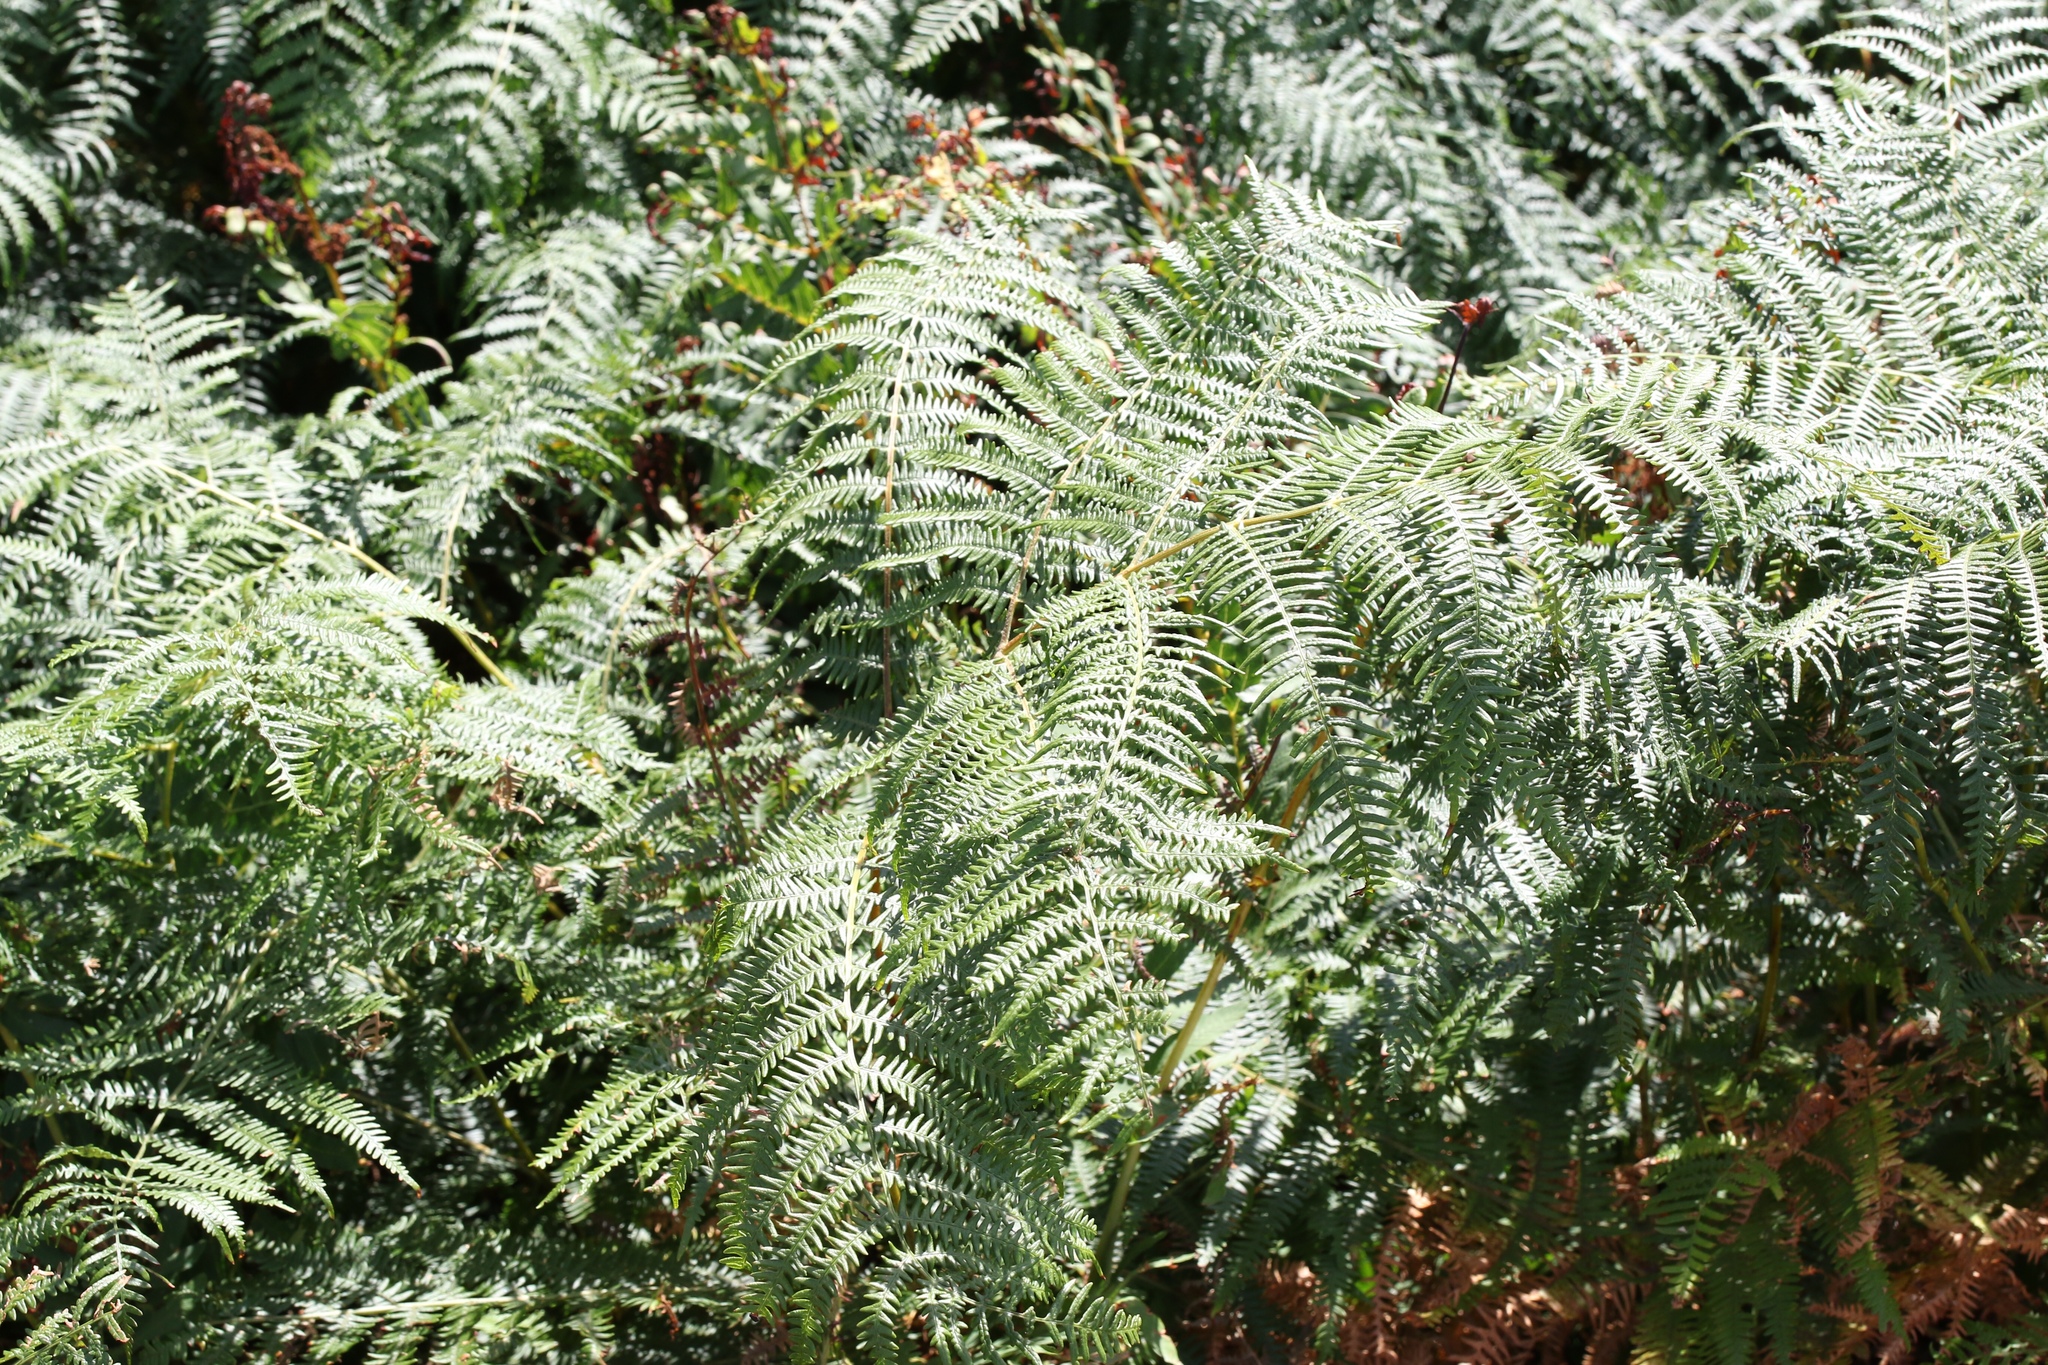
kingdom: Plantae
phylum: Tracheophyta
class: Polypodiopsida
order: Polypodiales
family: Dennstaedtiaceae
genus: Pteridium
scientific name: Pteridium aquilinum
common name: Bracken
